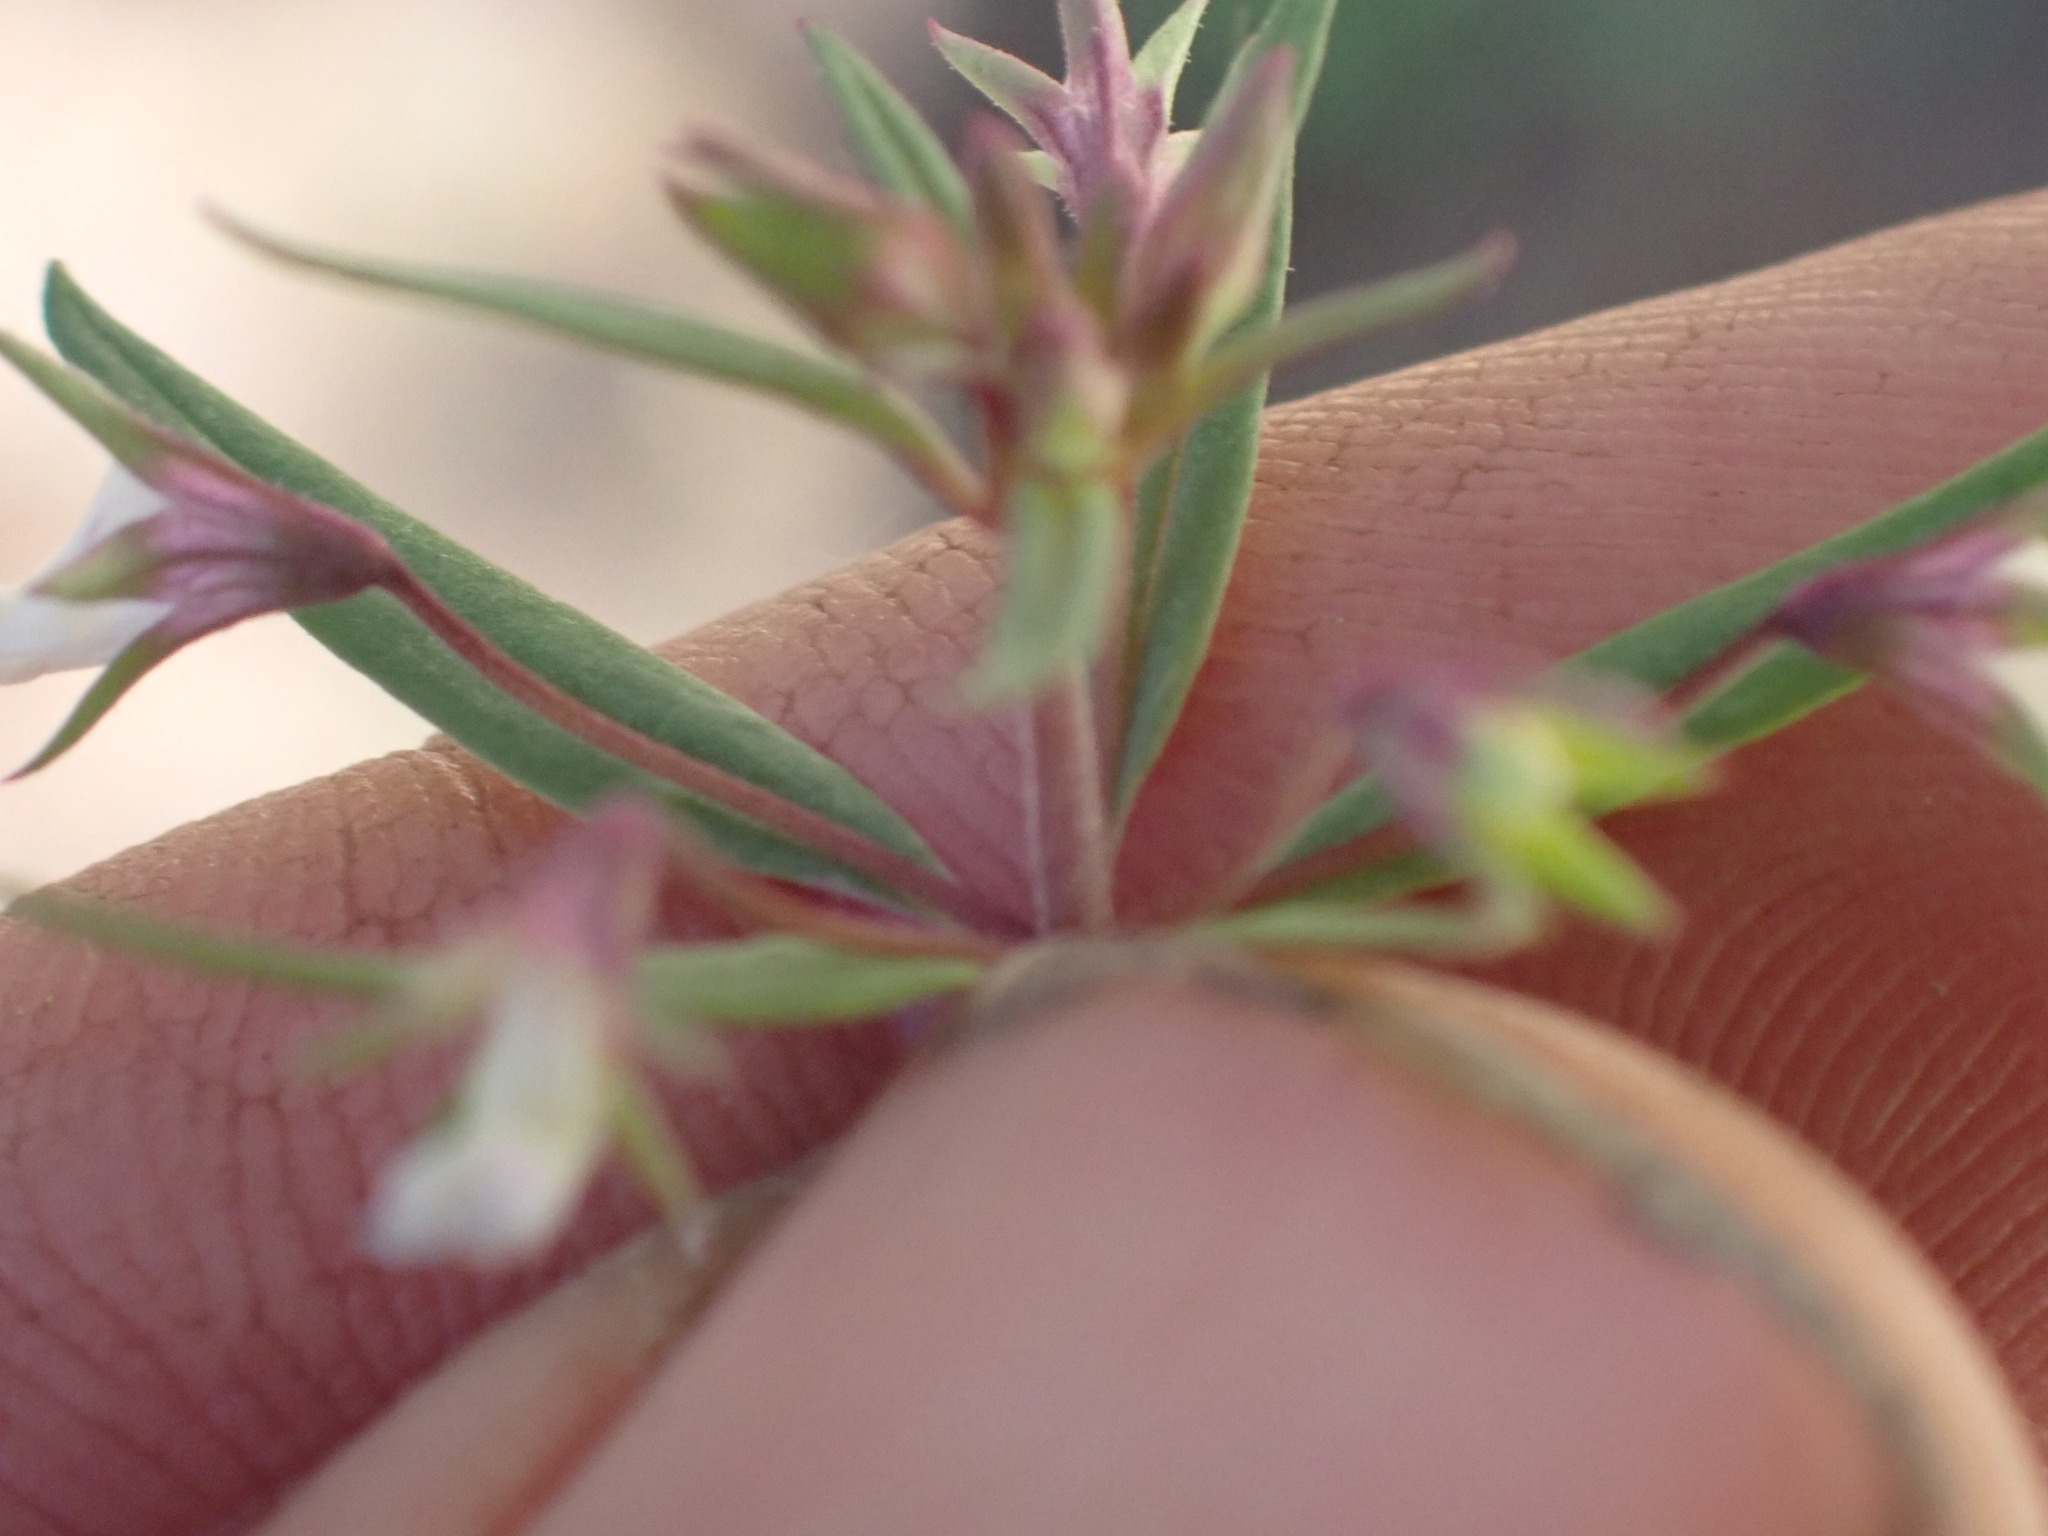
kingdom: Plantae
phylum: Tracheophyta
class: Magnoliopsida
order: Lamiales
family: Plantaginaceae
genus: Collinsia
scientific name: Collinsia parviflora
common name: Blue-lips
